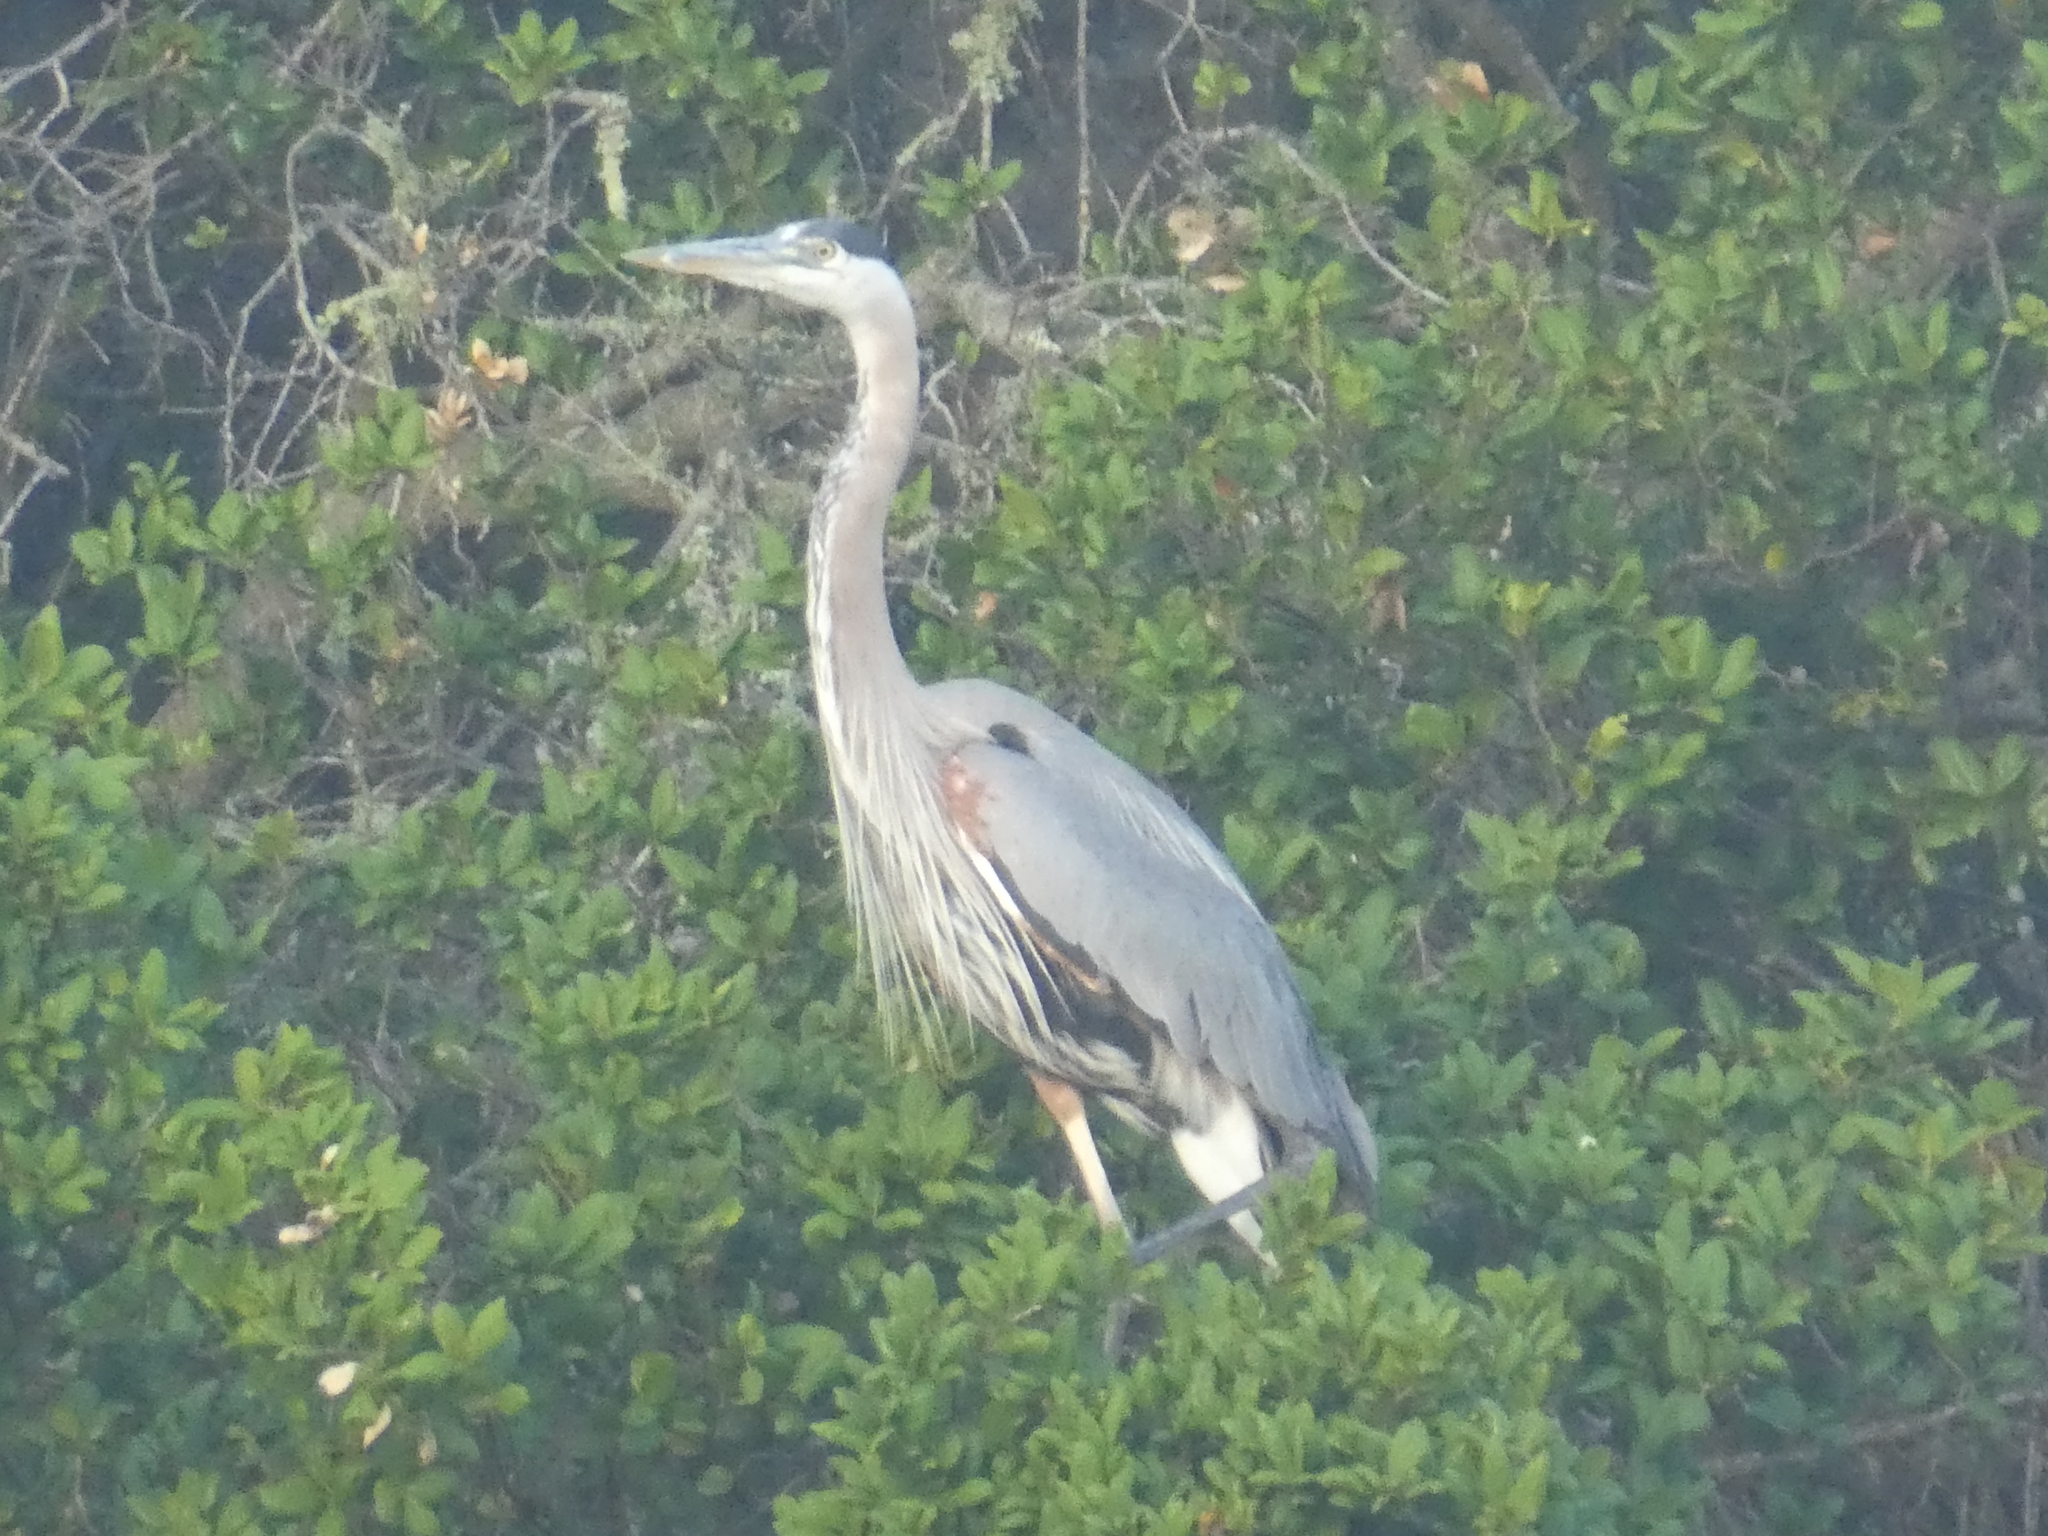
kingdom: Animalia
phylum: Chordata
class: Aves
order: Pelecaniformes
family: Ardeidae
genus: Ardea
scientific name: Ardea herodias
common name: Great blue heron
